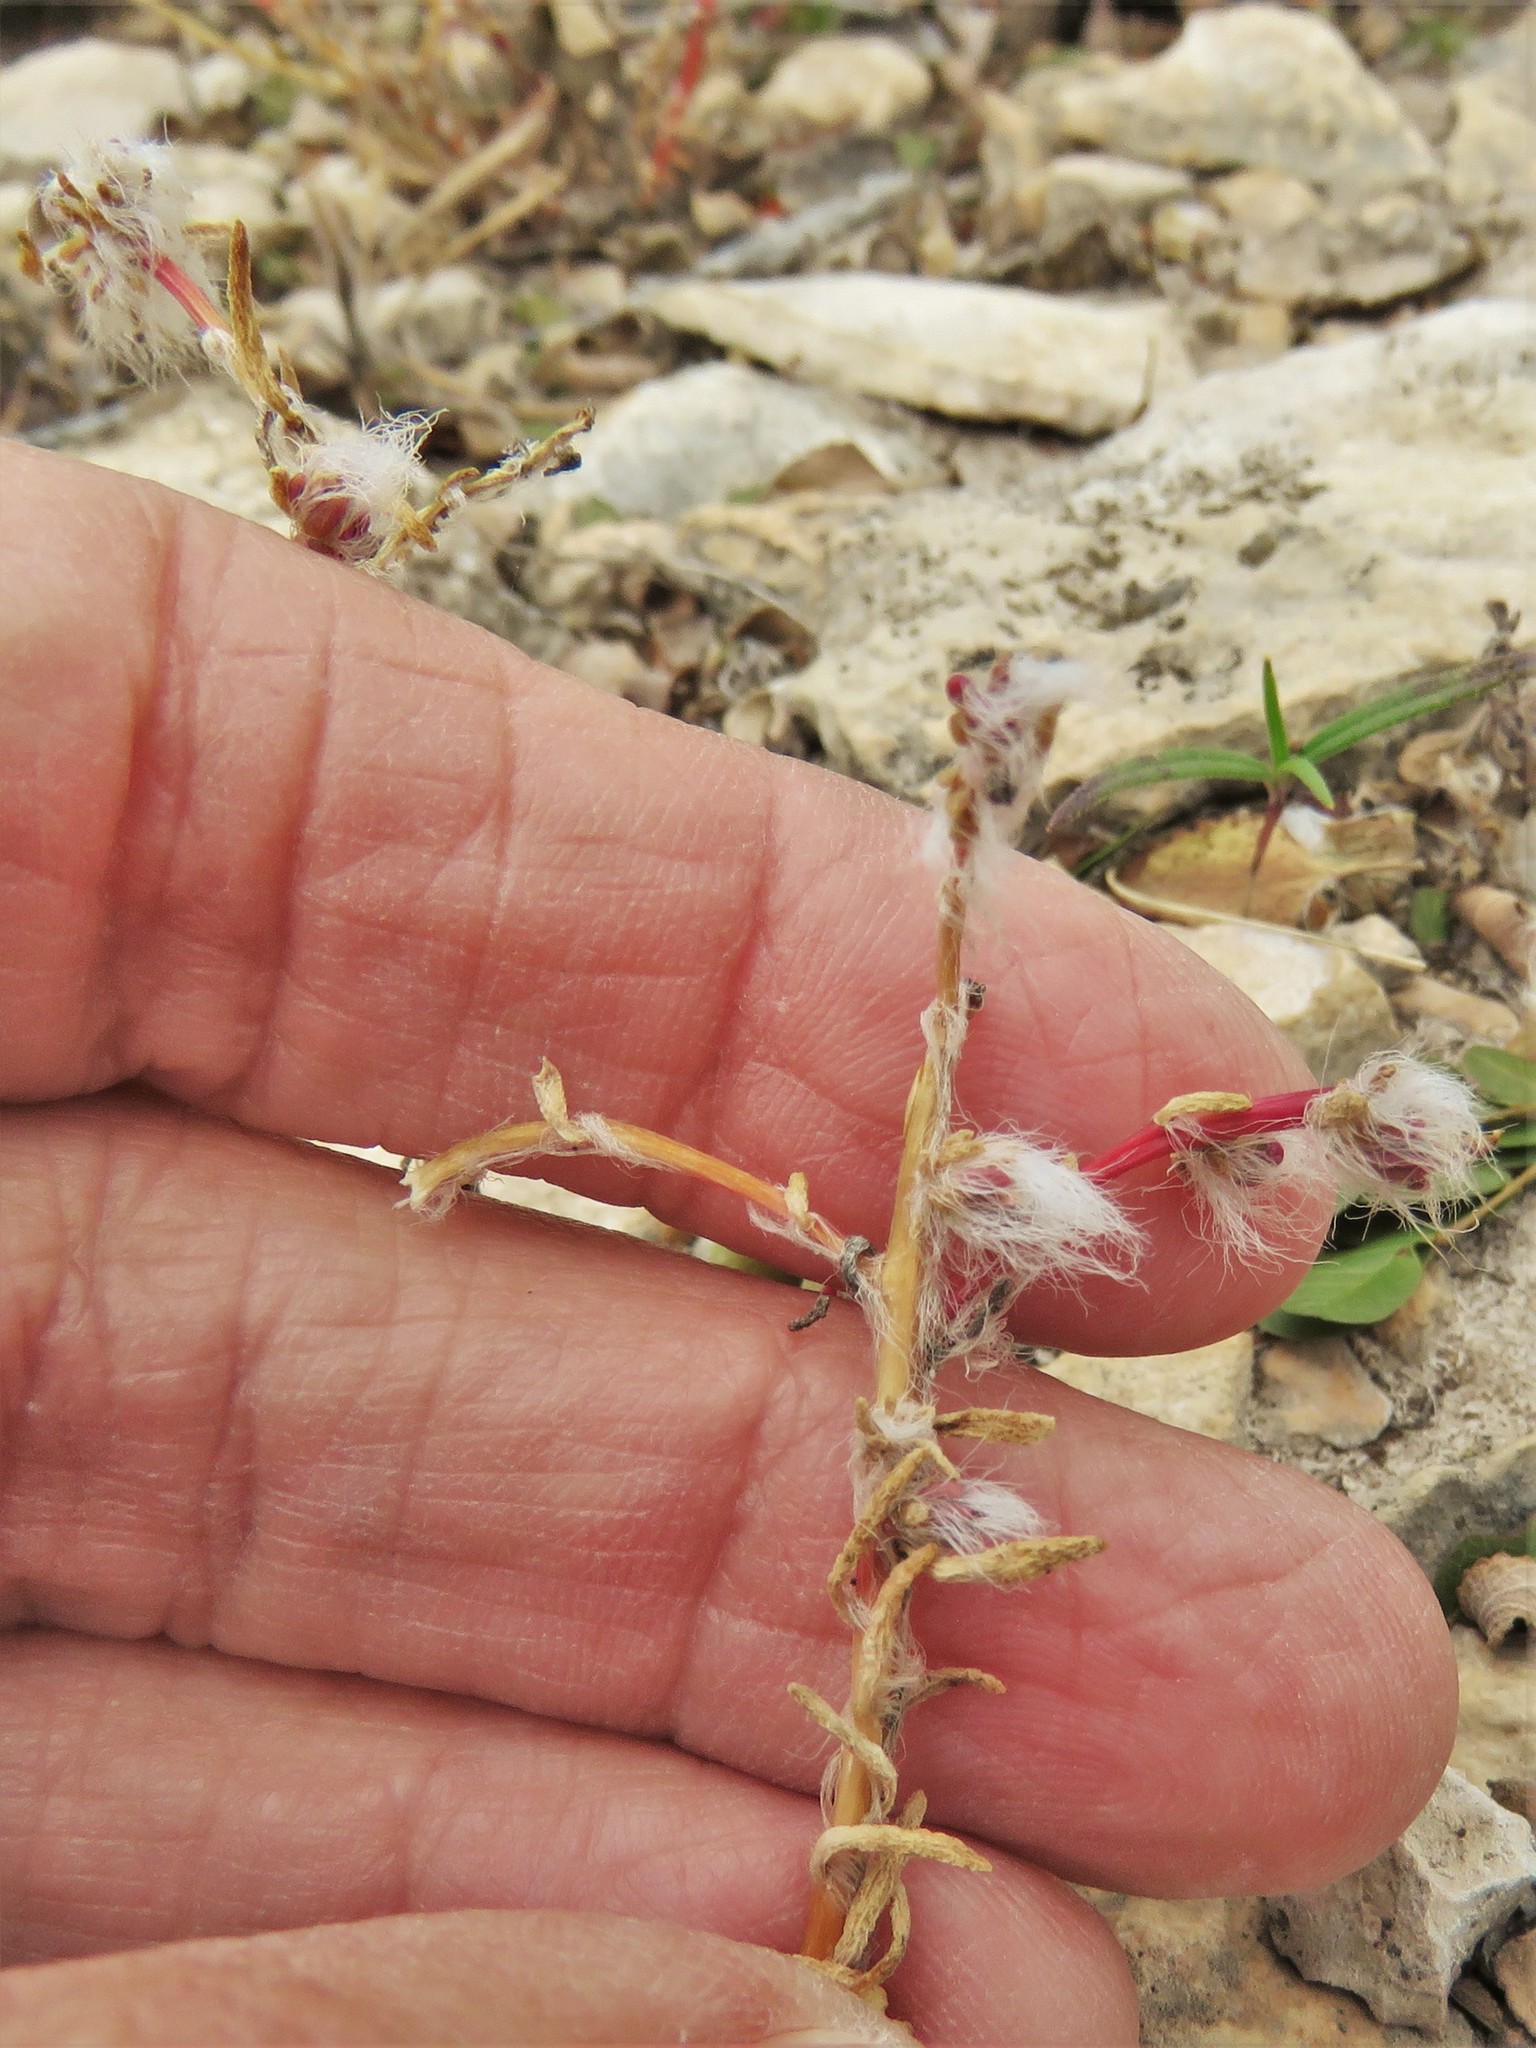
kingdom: Plantae
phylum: Tracheophyta
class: Magnoliopsida
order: Caryophyllales
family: Portulacaceae
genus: Portulaca
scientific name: Portulaca pilosa
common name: Kiss me quick
